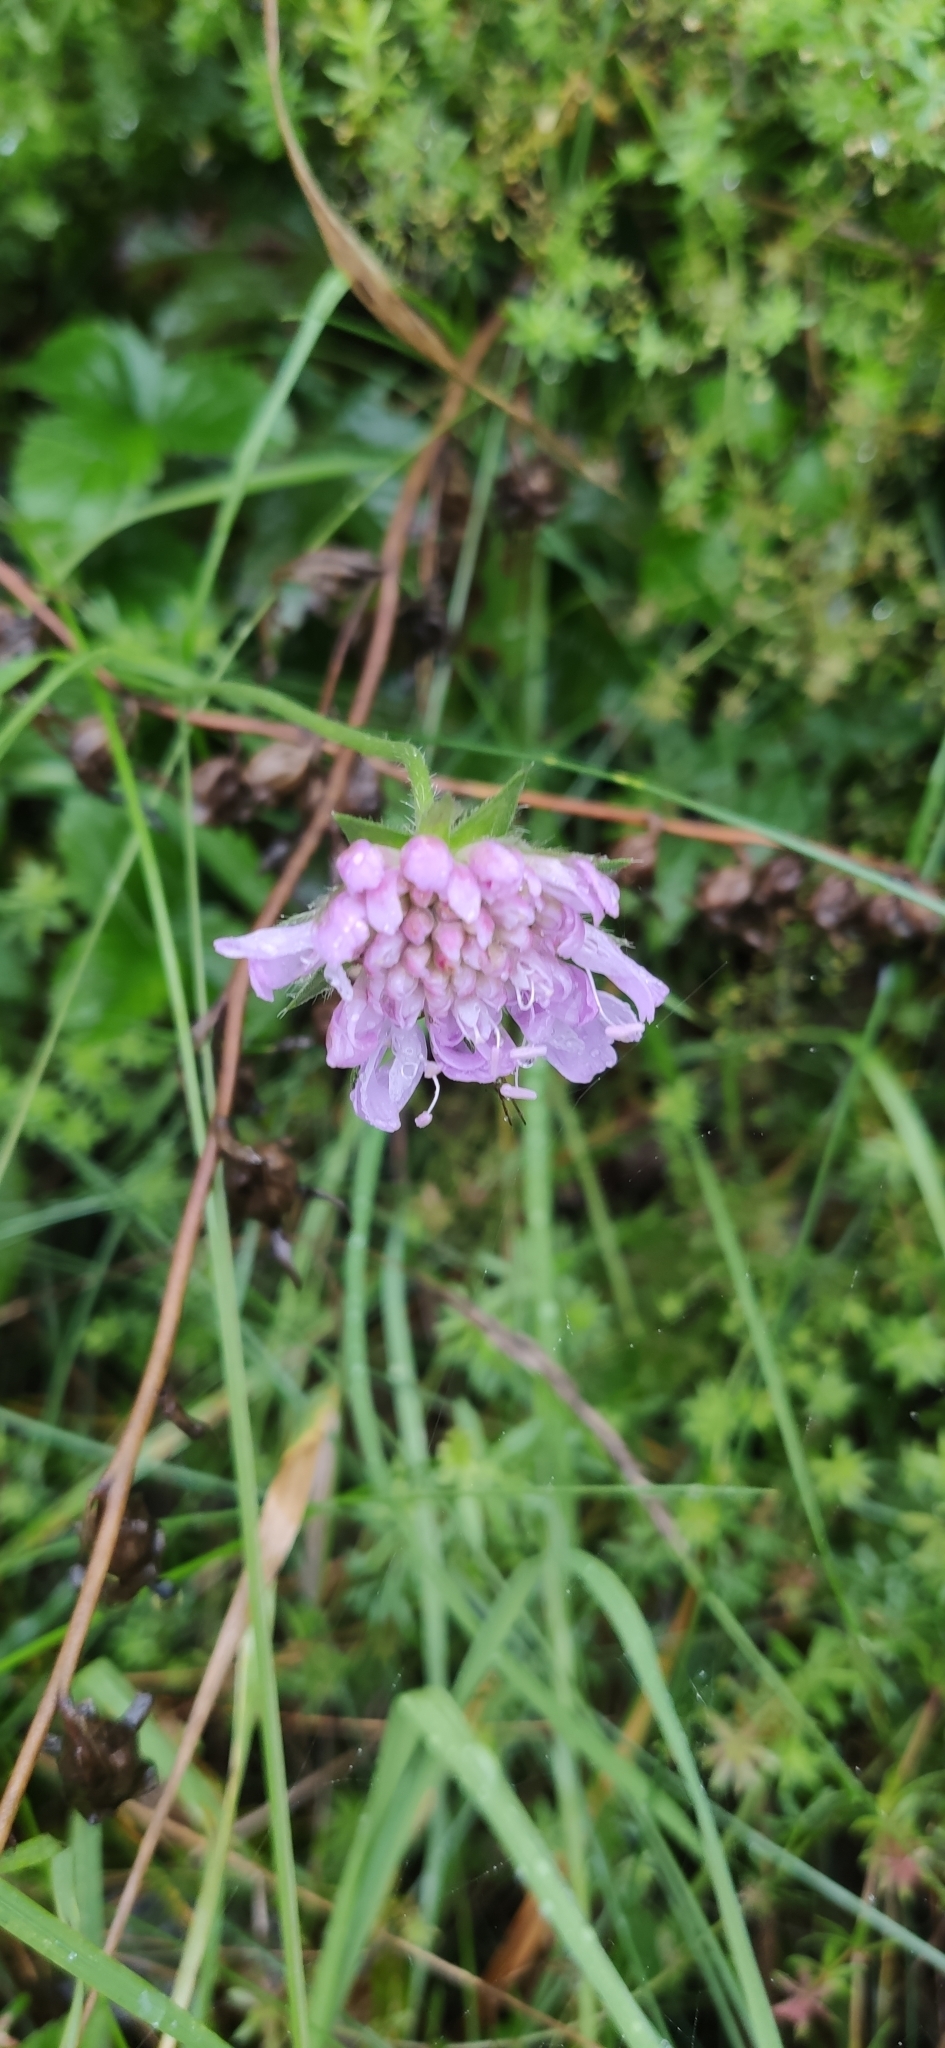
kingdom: Plantae
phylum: Tracheophyta
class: Magnoliopsida
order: Dipsacales
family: Caprifoliaceae
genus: Knautia
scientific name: Knautia arvensis
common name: Field scabiosa
